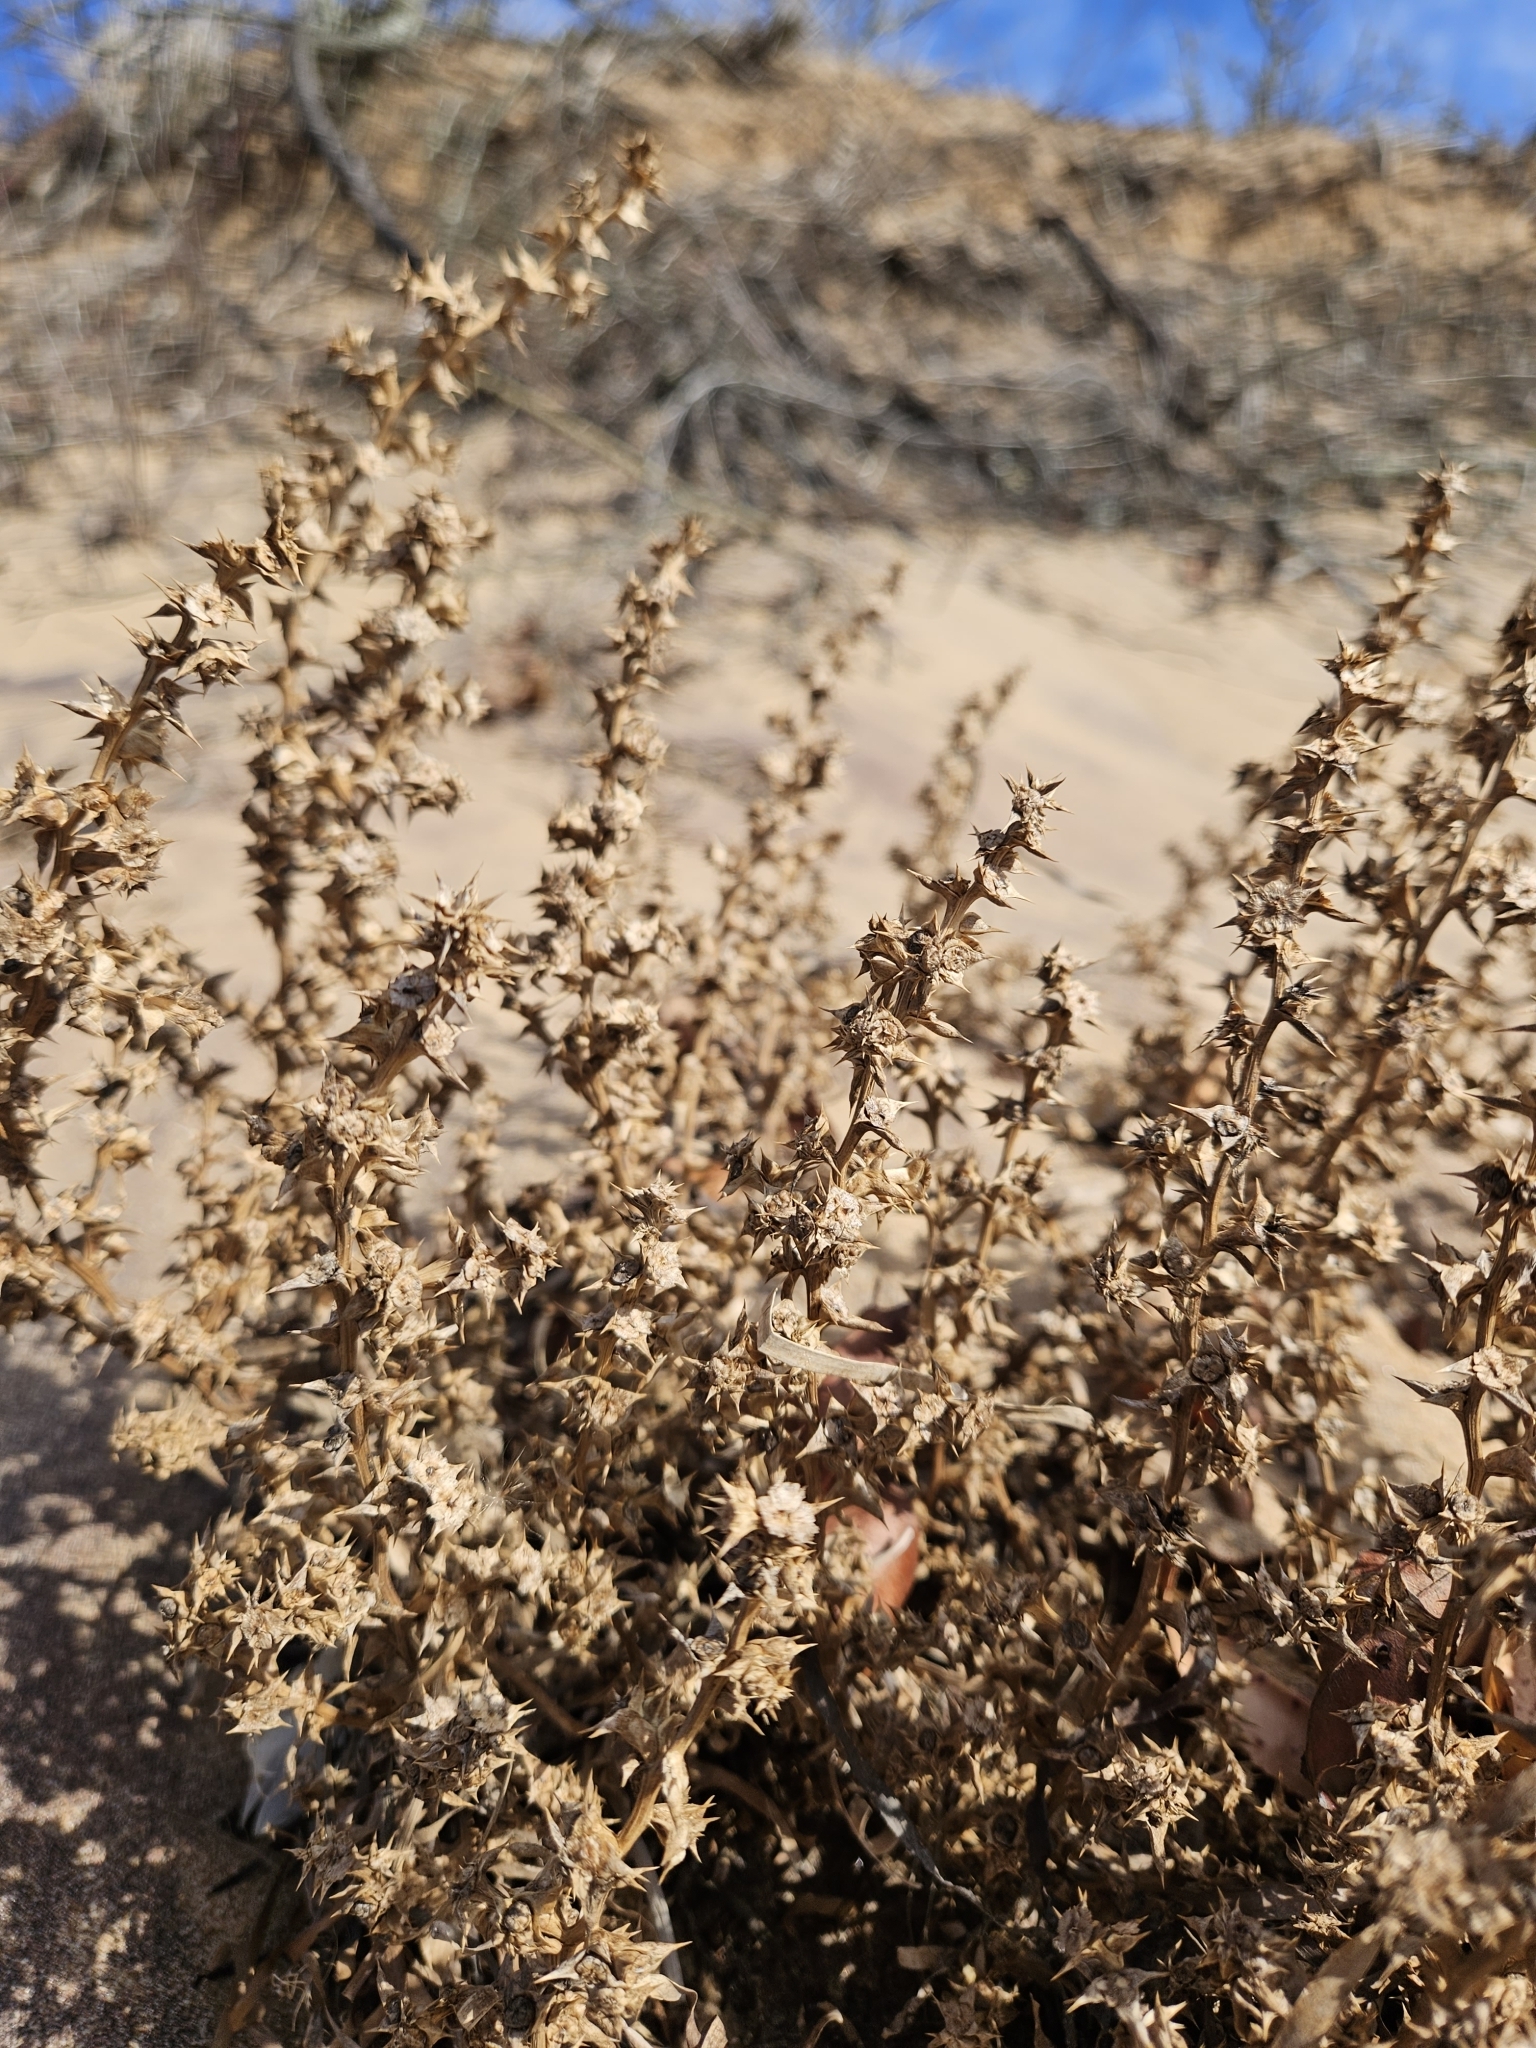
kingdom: Plantae
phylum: Tracheophyta
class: Magnoliopsida
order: Caryophyllales
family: Amaranthaceae
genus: Salsola
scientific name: Salsola kali
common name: Saltwort
